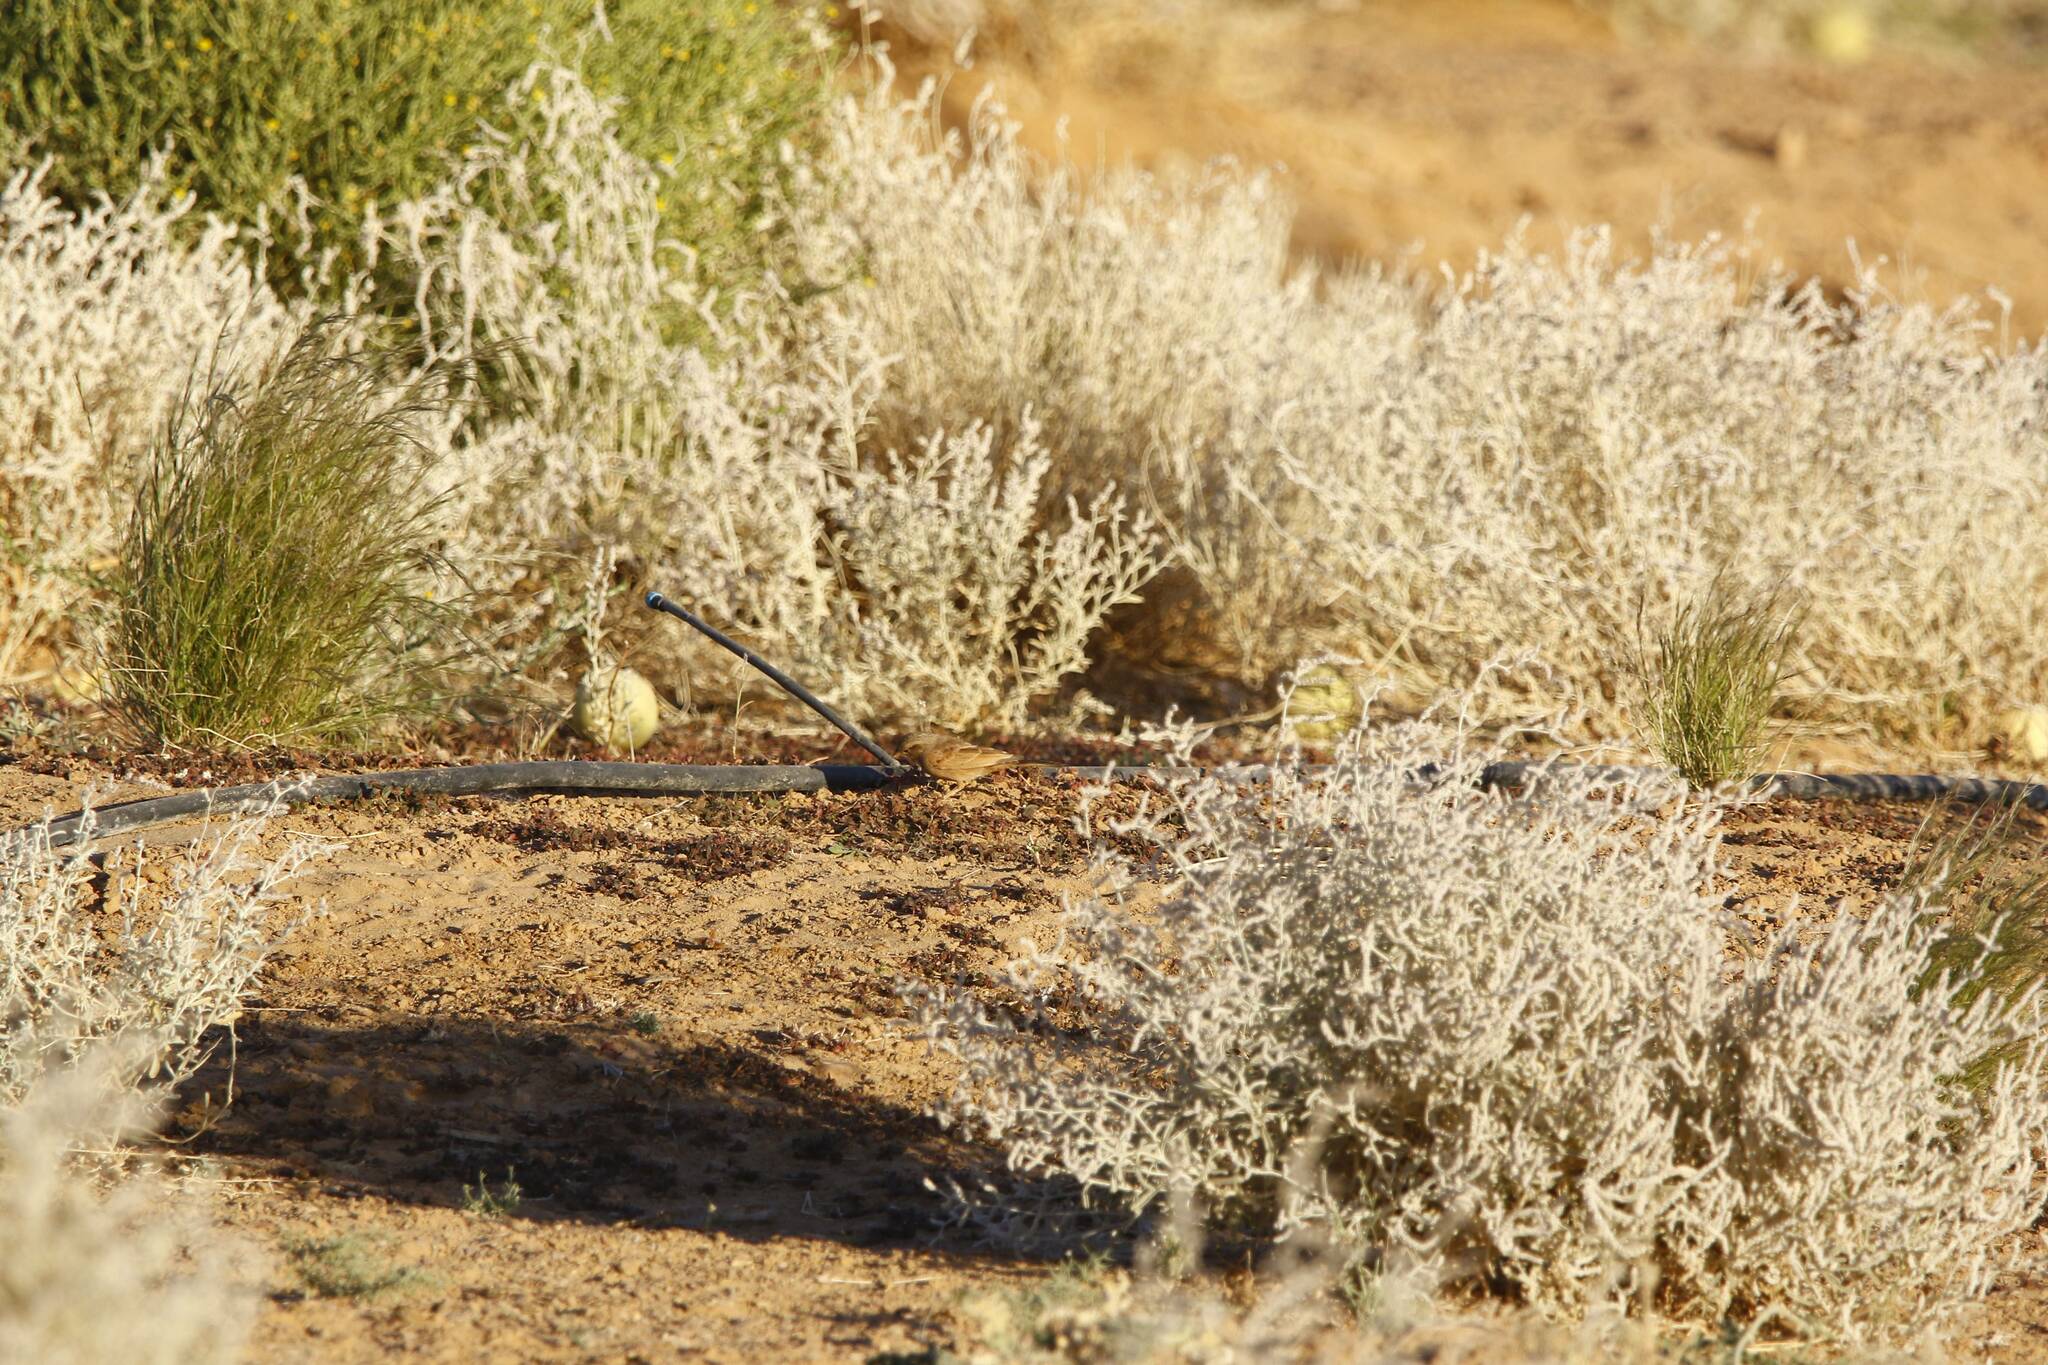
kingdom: Animalia
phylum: Chordata
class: Aves
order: Passeriformes
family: Emberizidae
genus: Emberiza
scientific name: Emberiza sahari
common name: House bunting
